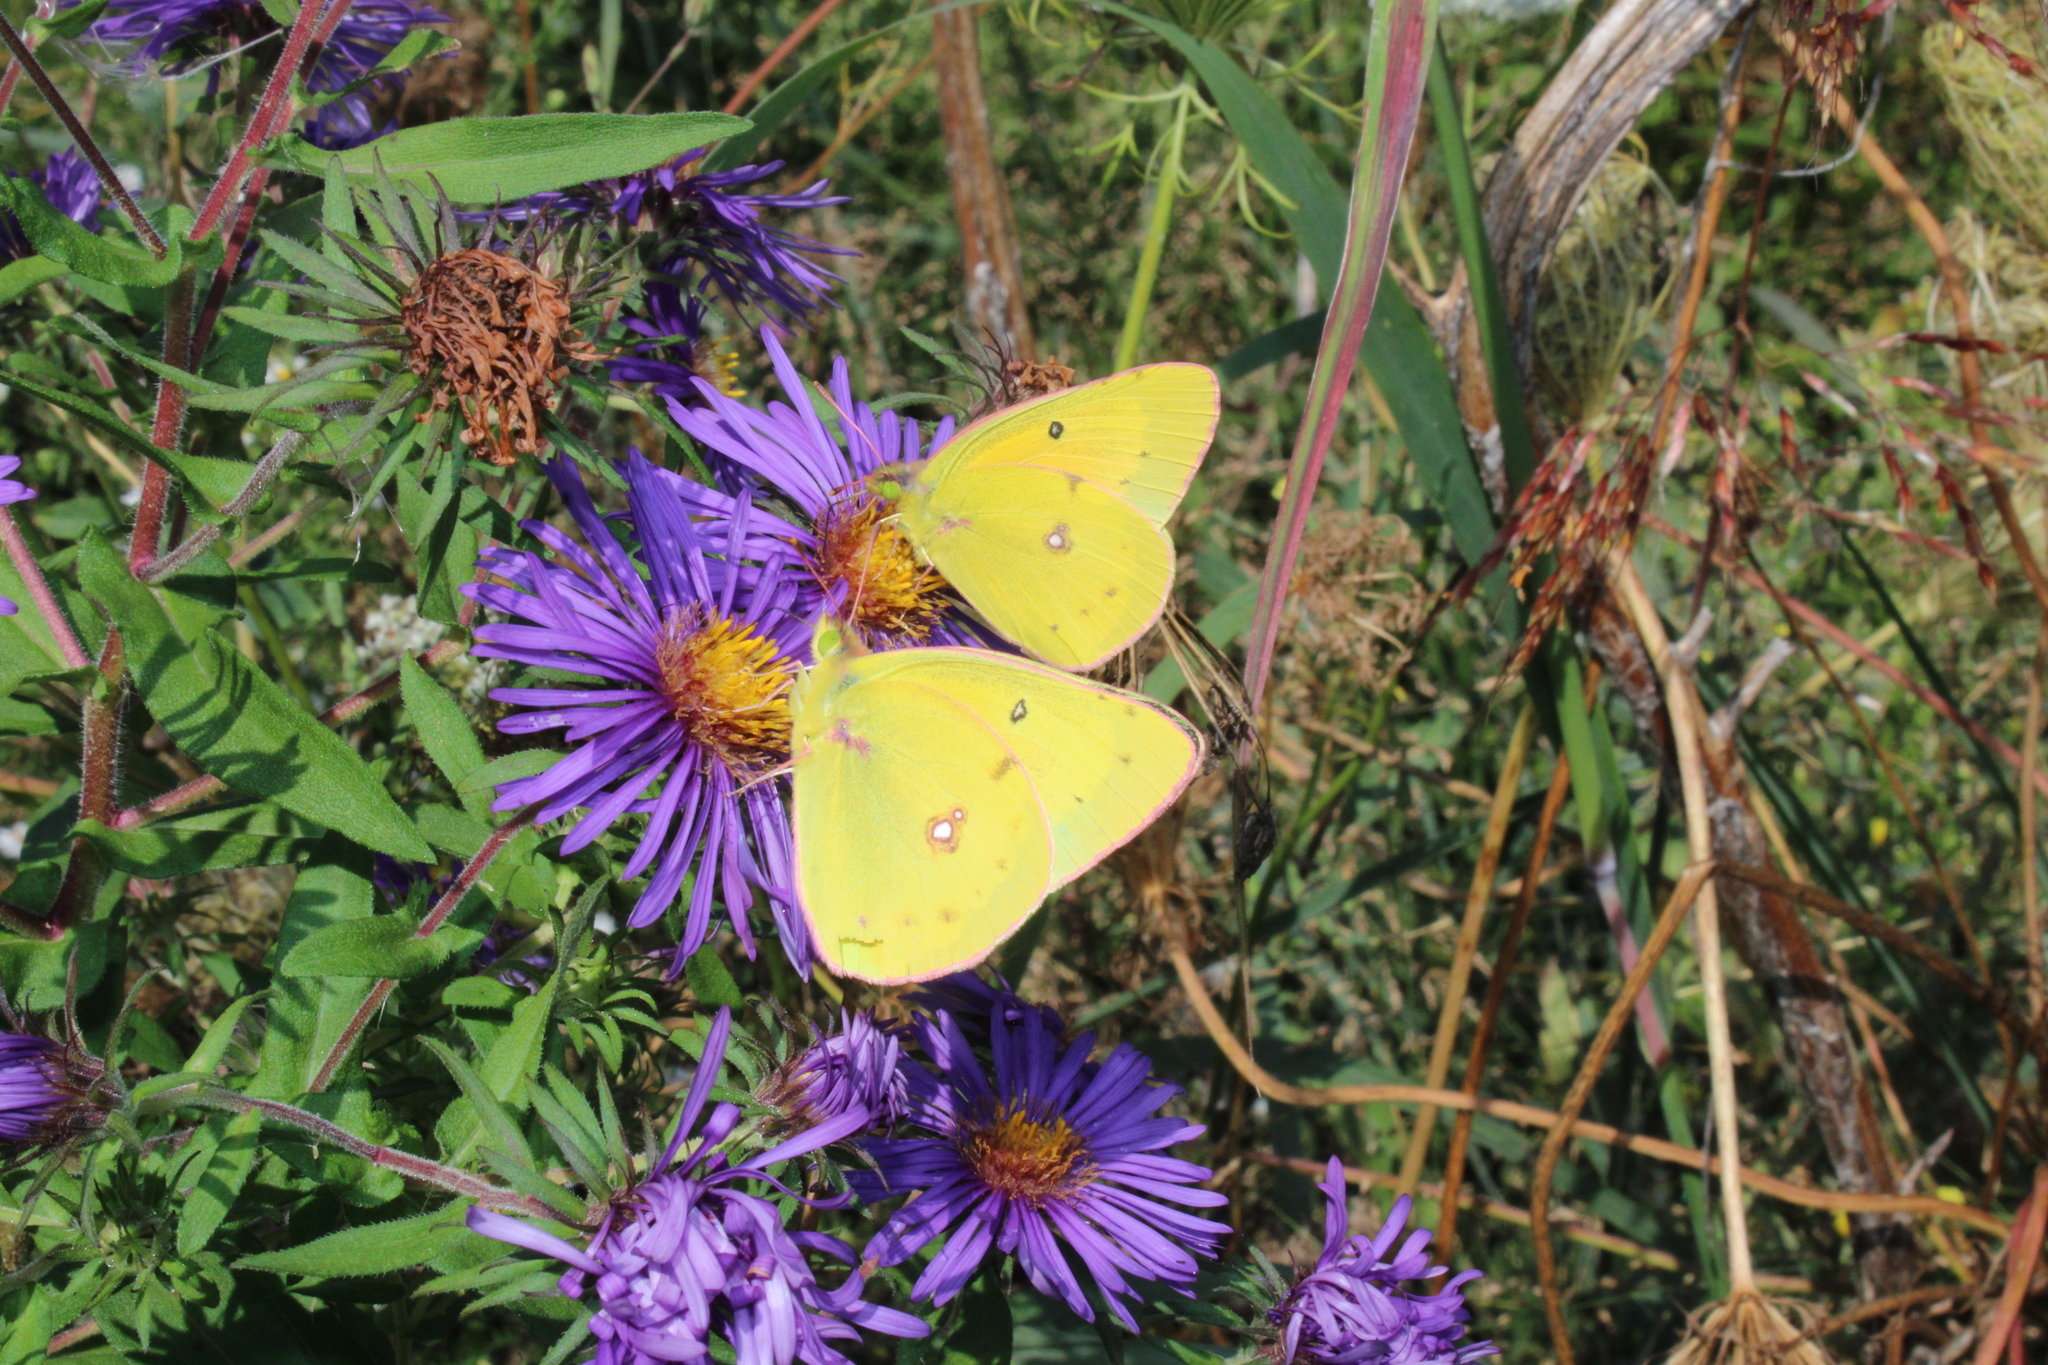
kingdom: Animalia
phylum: Arthropoda
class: Insecta
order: Lepidoptera
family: Pieridae
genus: Colias
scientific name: Colias eurytheme
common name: Alfalfa butterfly
